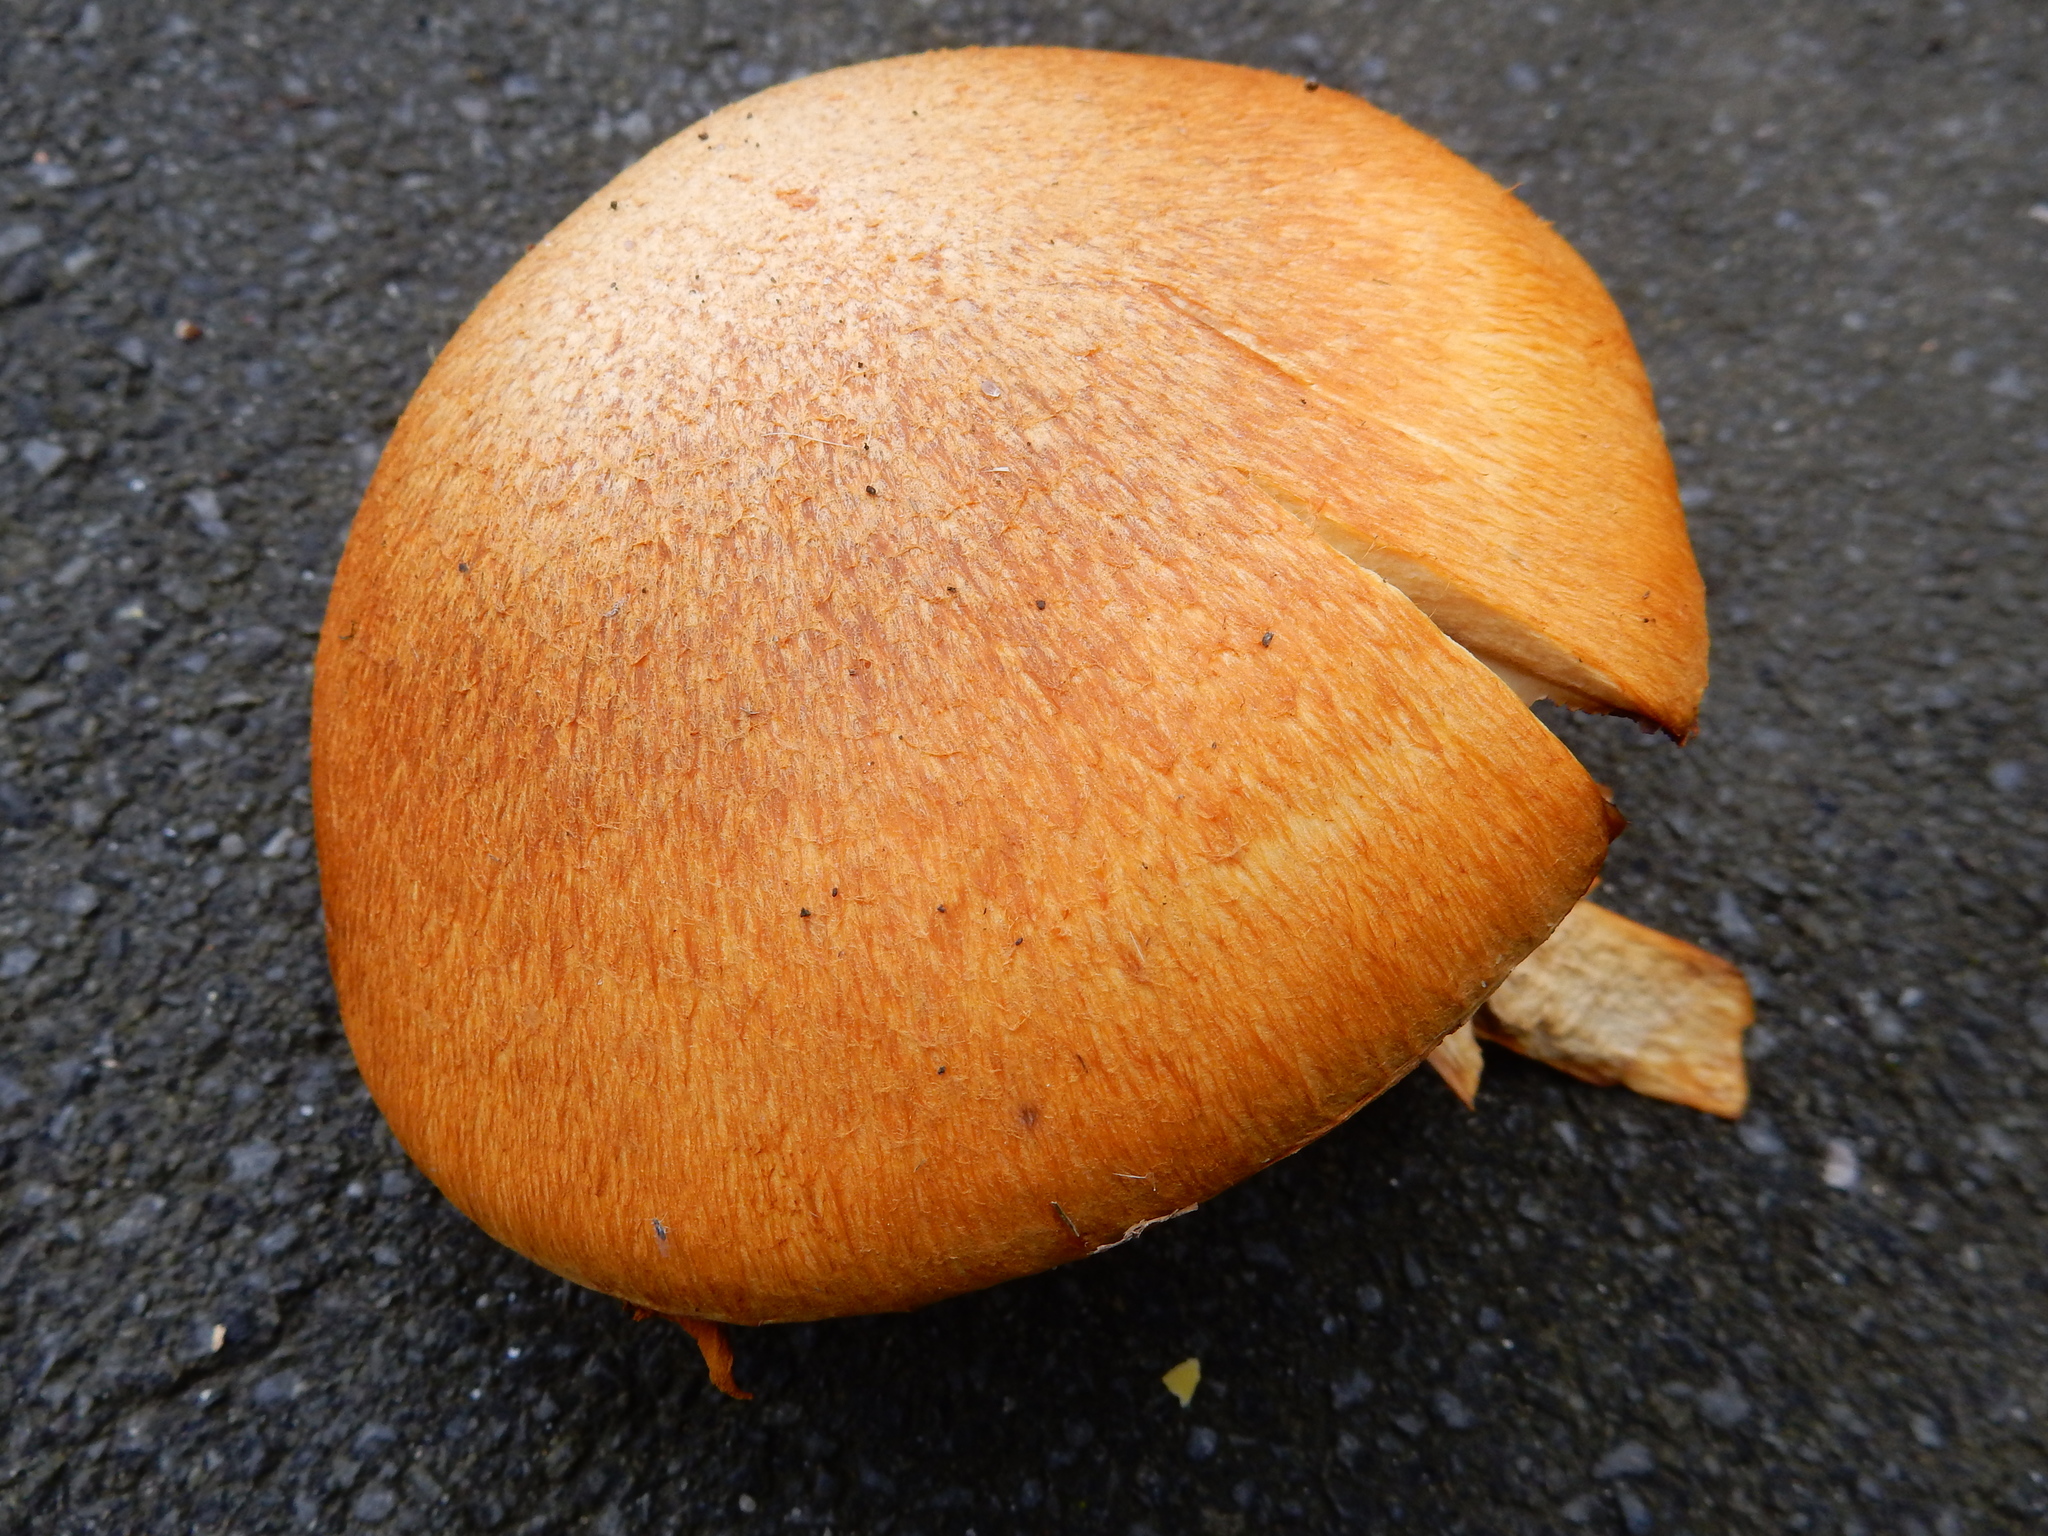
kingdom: Fungi
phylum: Basidiomycota
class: Agaricomycetes
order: Agaricales
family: Hymenogastraceae
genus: Gymnopilus
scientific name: Gymnopilus junonius
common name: Spectacular rustgill
